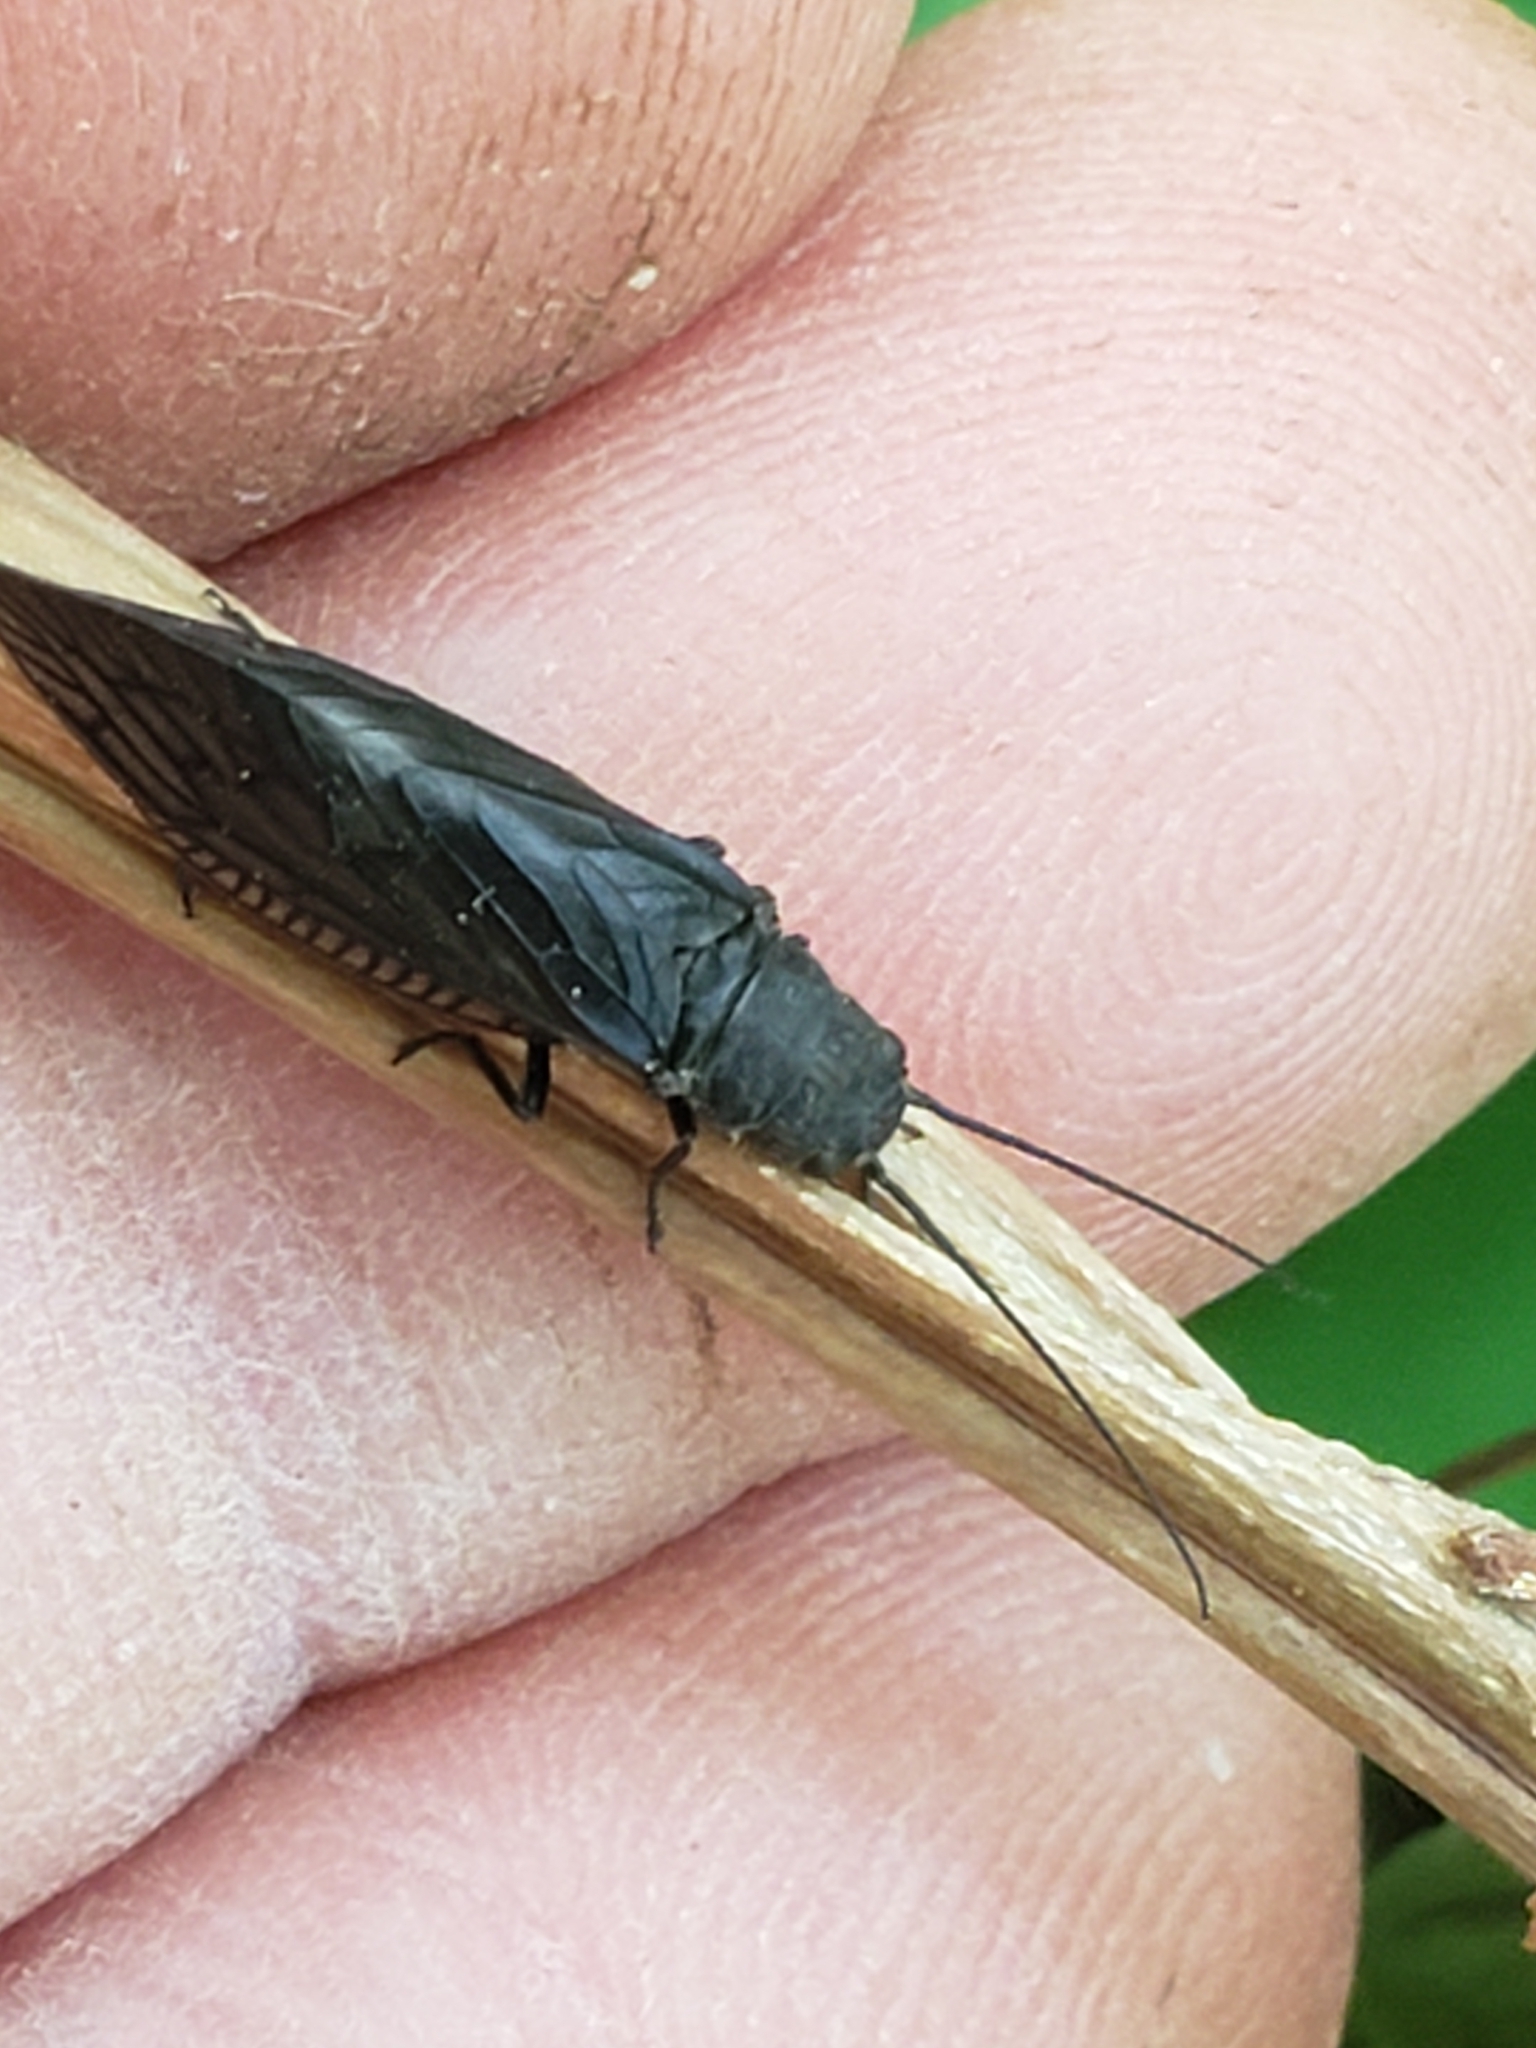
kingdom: Animalia
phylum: Arthropoda
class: Insecta
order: Megaloptera
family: Sialidae
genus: Sialis
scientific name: Sialis
